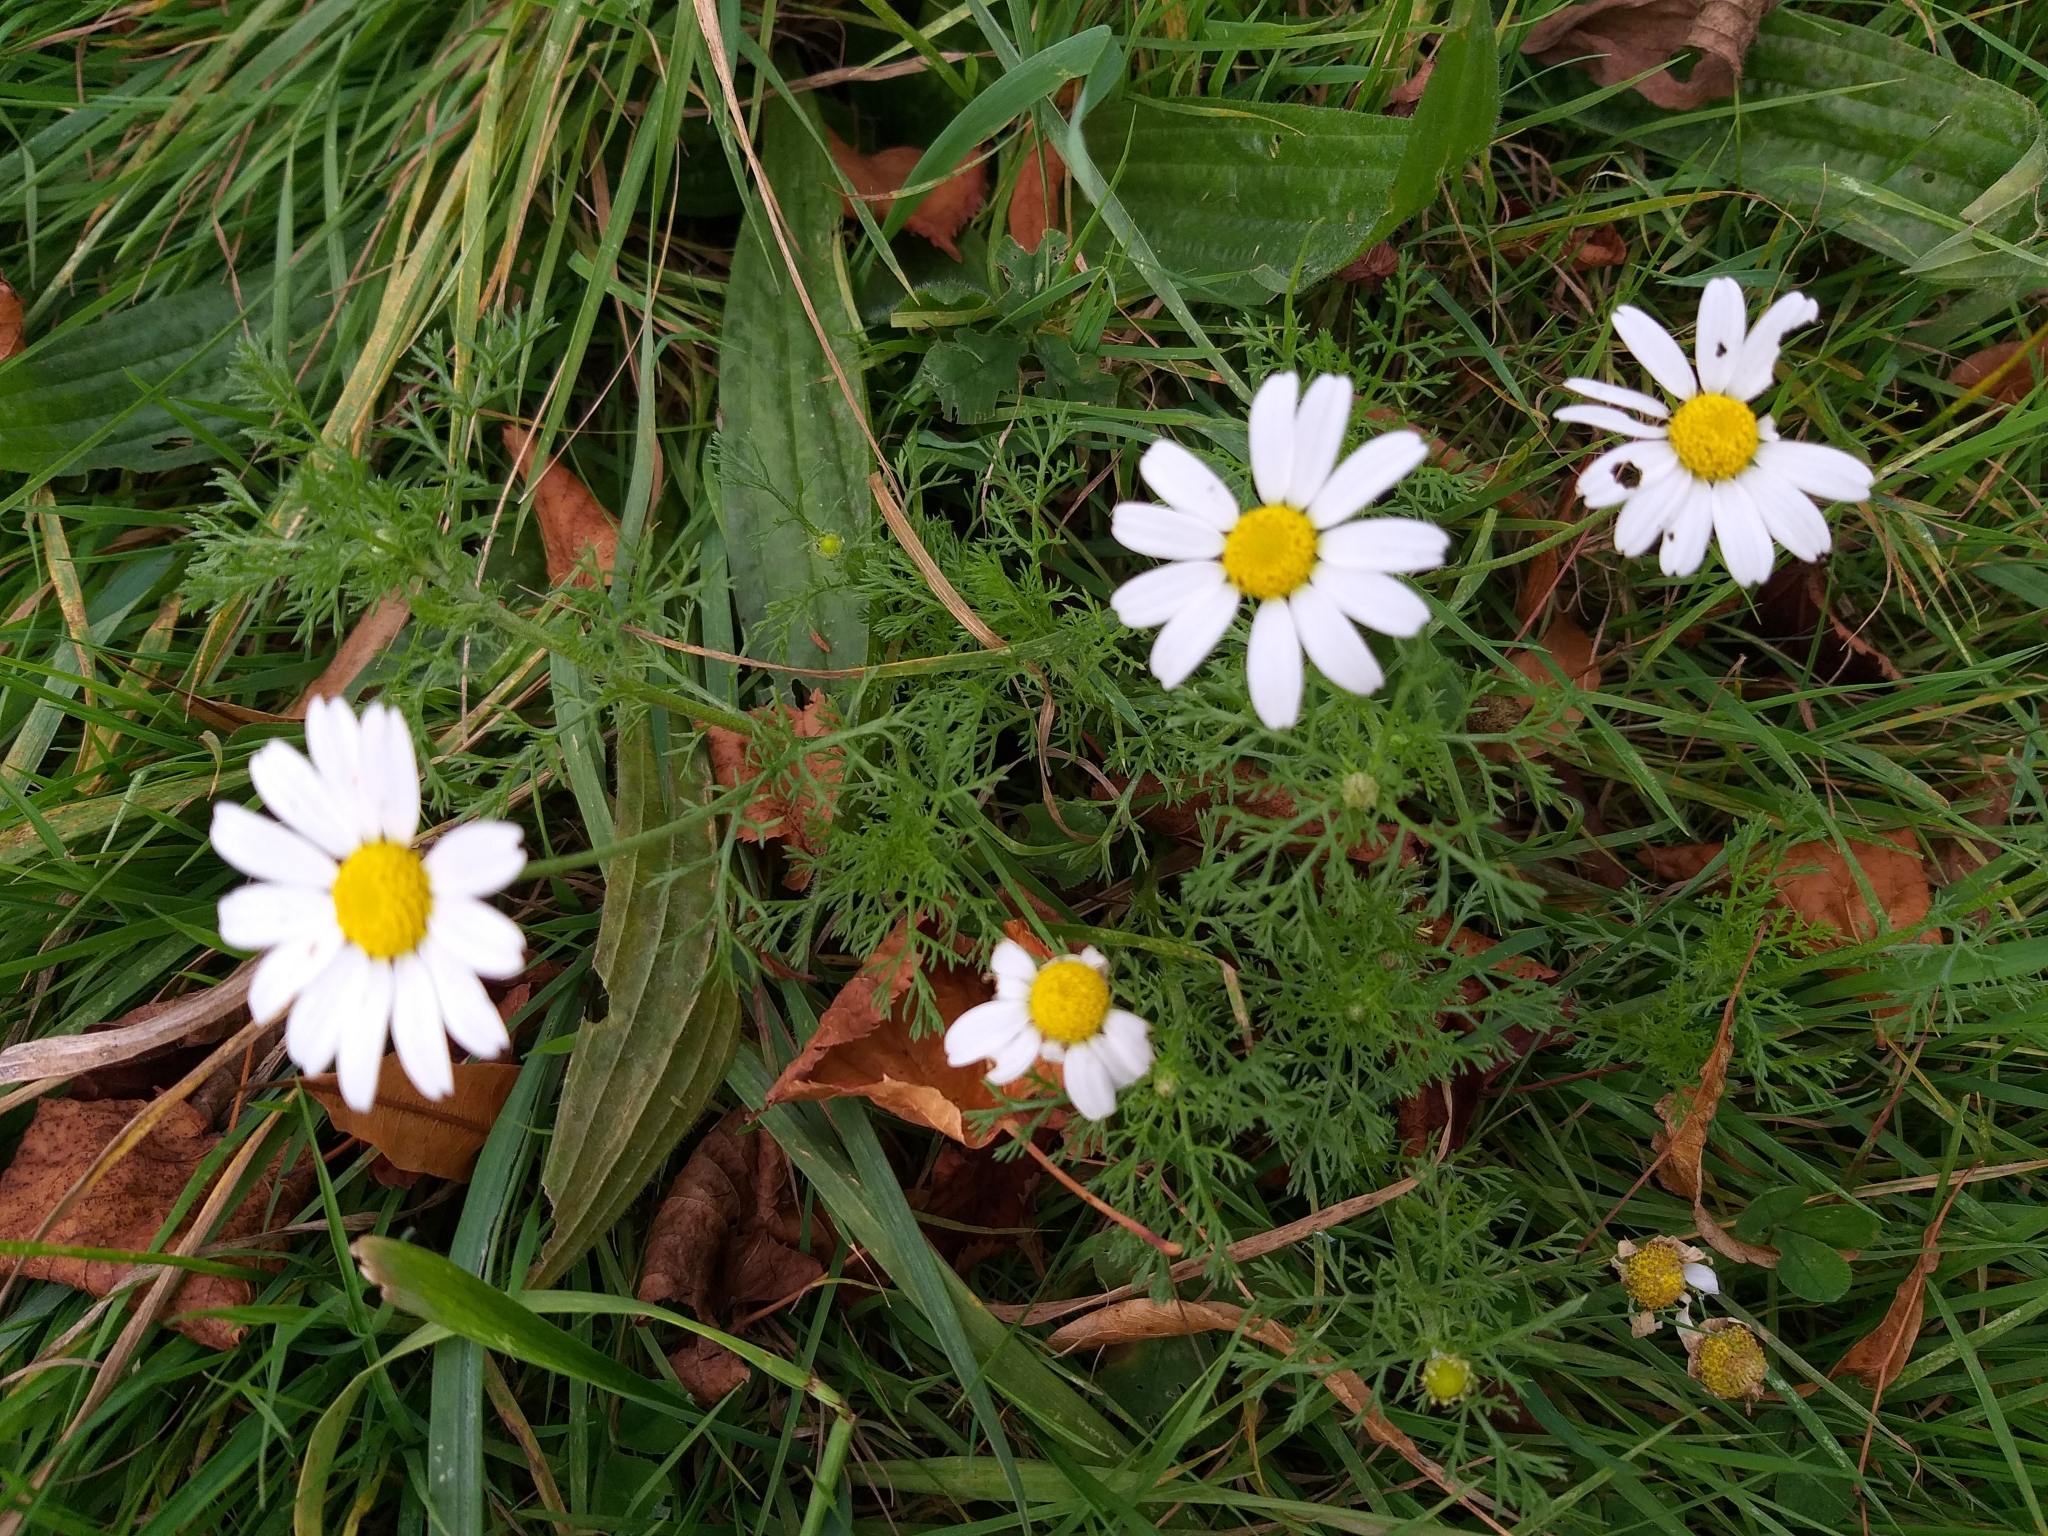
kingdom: Plantae
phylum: Tracheophyta
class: Magnoliopsida
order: Asterales
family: Asteraceae
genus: Tripleurospermum
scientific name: Tripleurospermum inodorum
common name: Scentless mayweed
